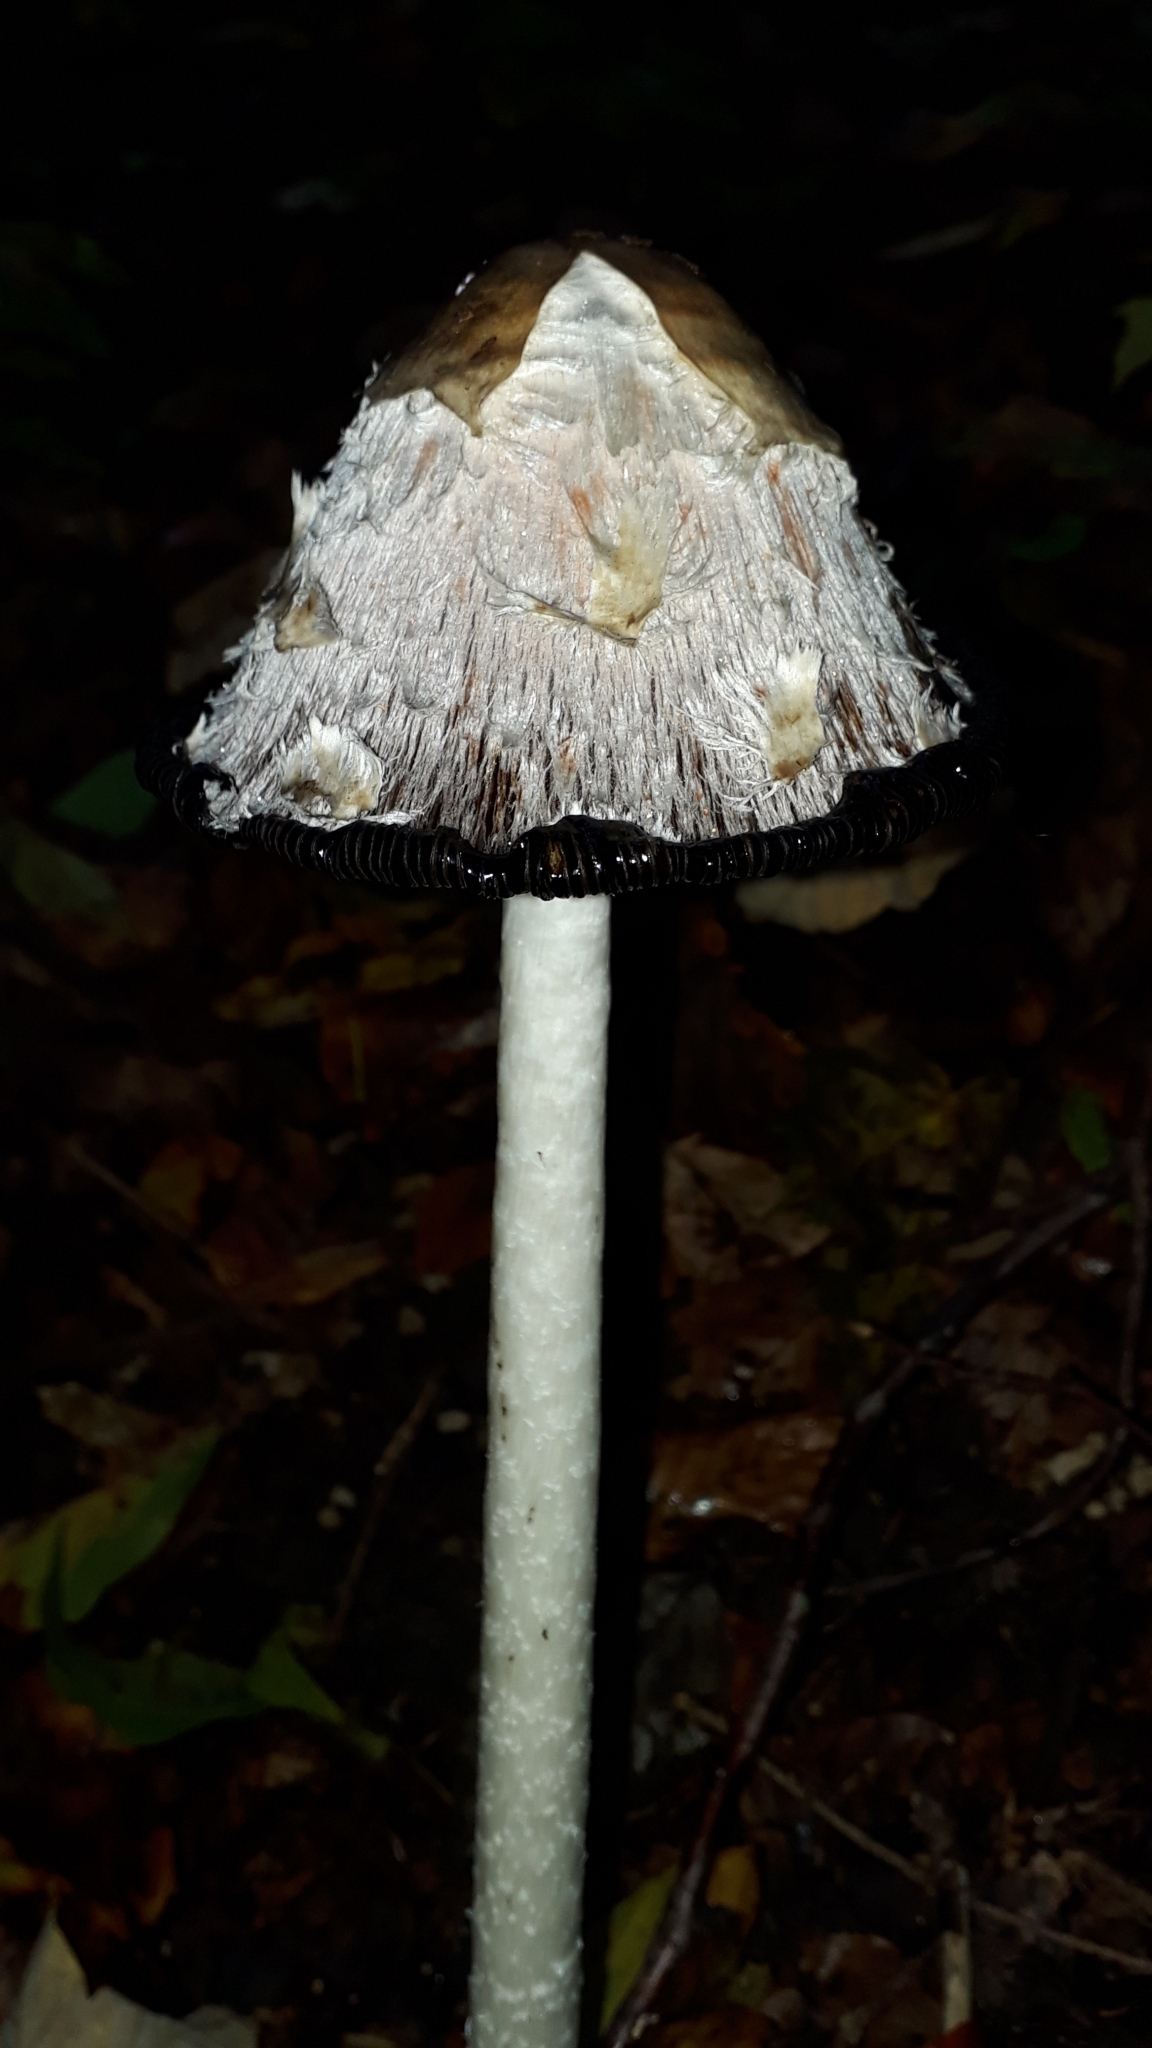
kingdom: Fungi
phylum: Basidiomycota
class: Agaricomycetes
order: Agaricales
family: Agaricaceae
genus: Coprinus
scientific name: Coprinus comatus
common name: Lawyer's wig
